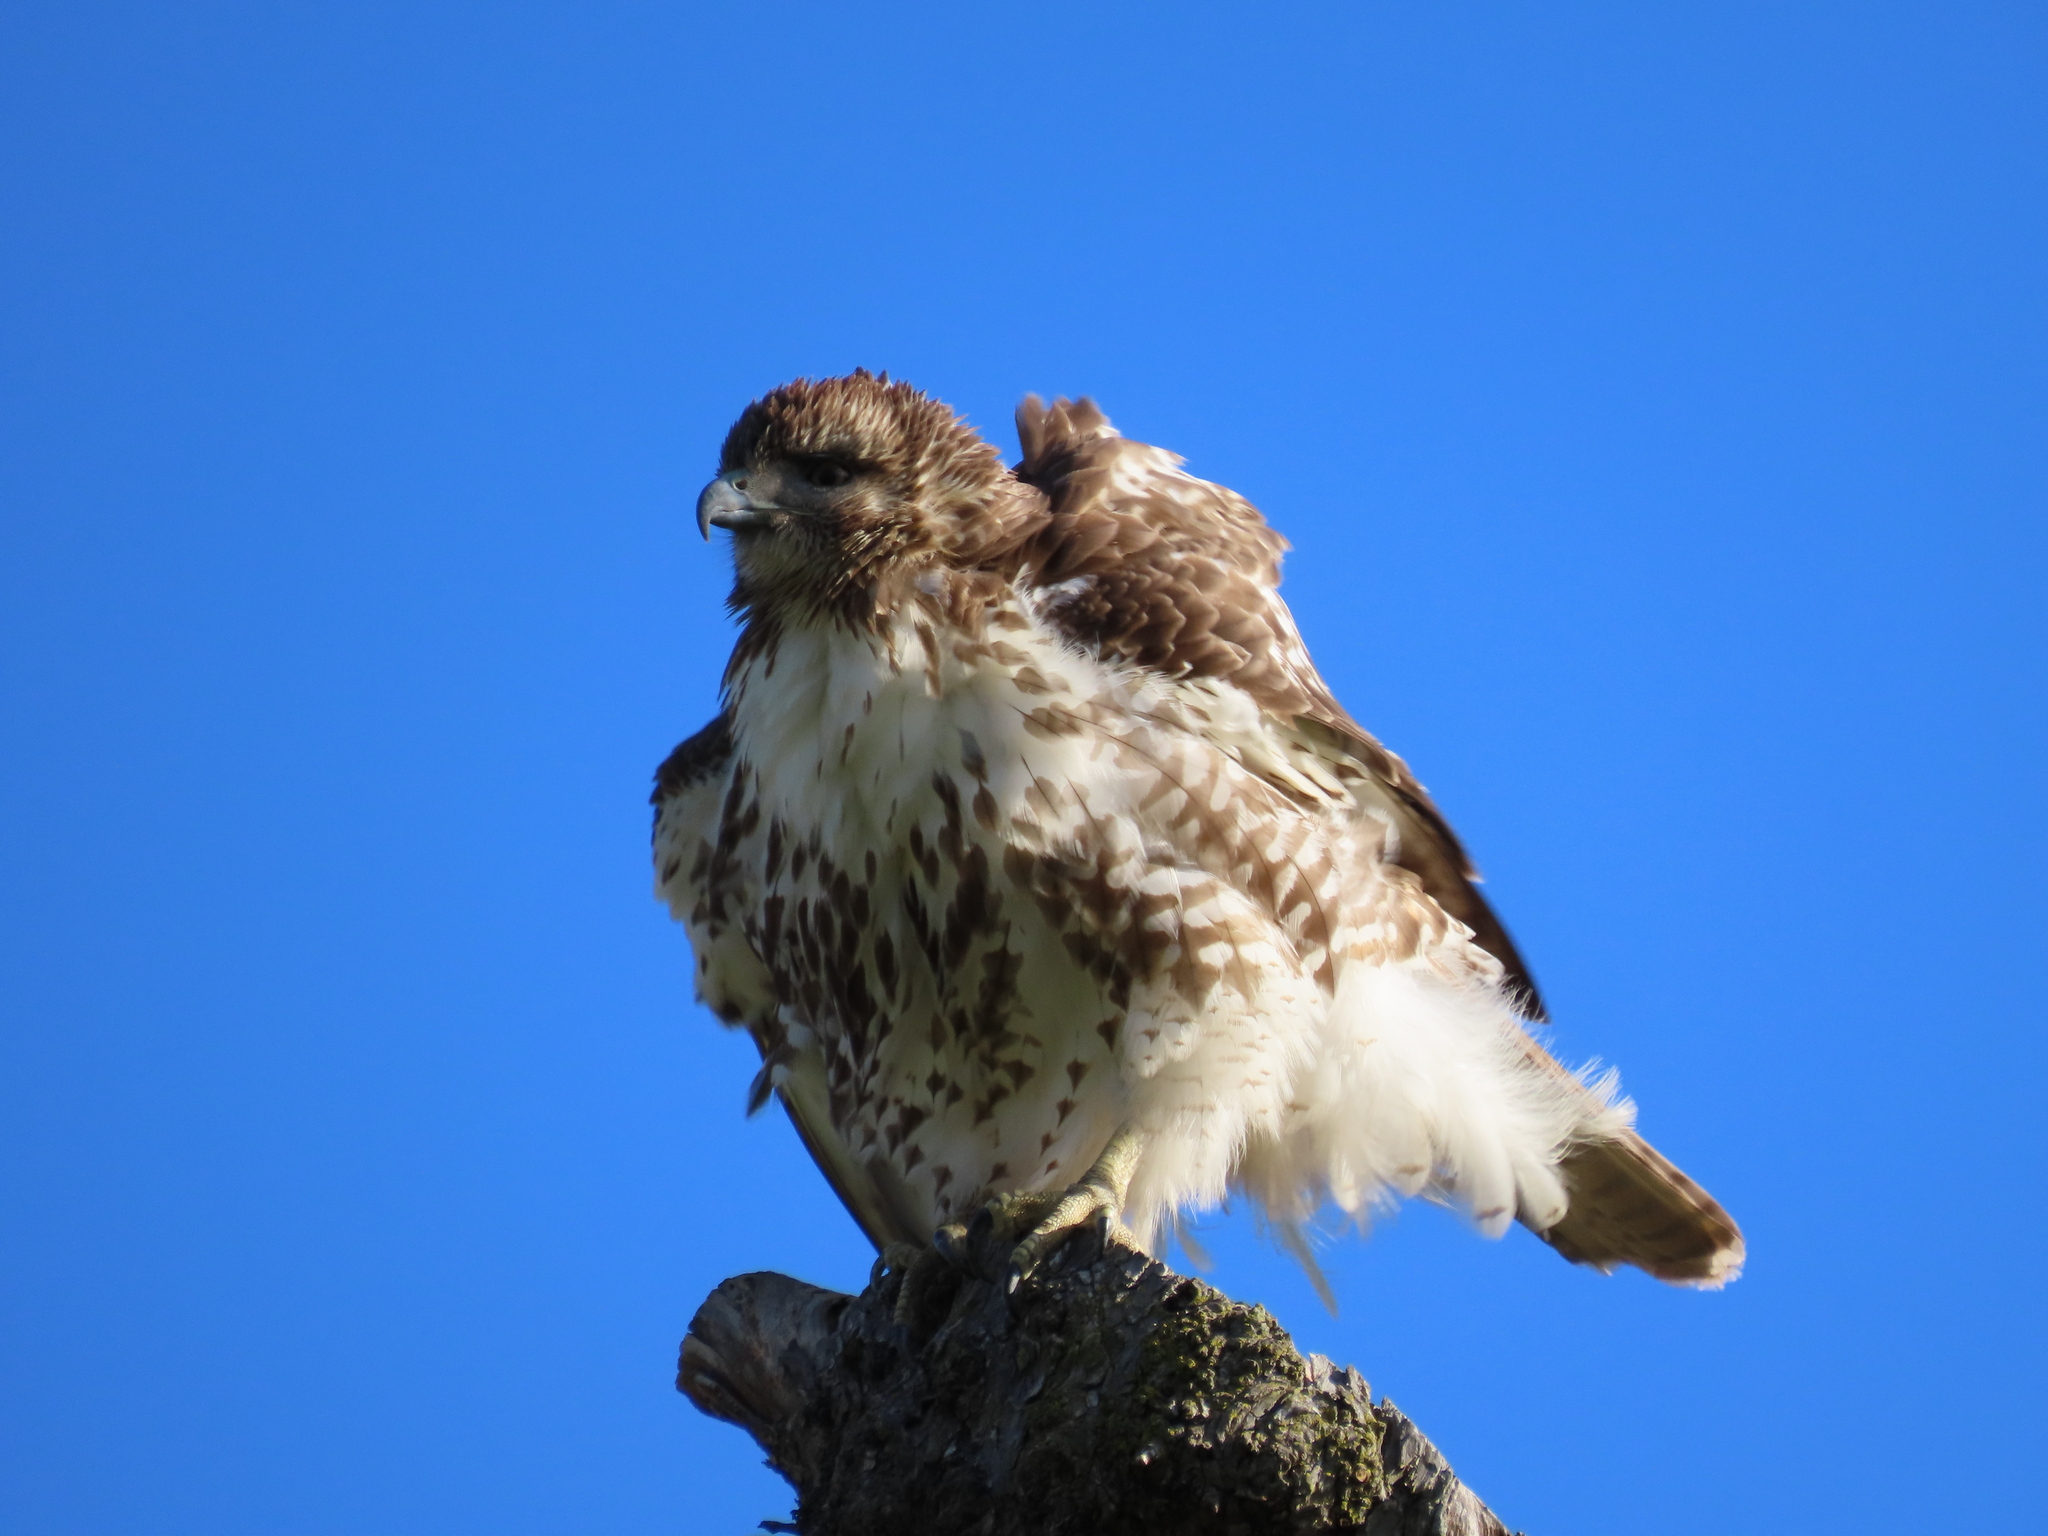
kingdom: Animalia
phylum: Chordata
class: Aves
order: Accipitriformes
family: Accipitridae
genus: Buteo
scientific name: Buteo jamaicensis
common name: Red-tailed hawk
